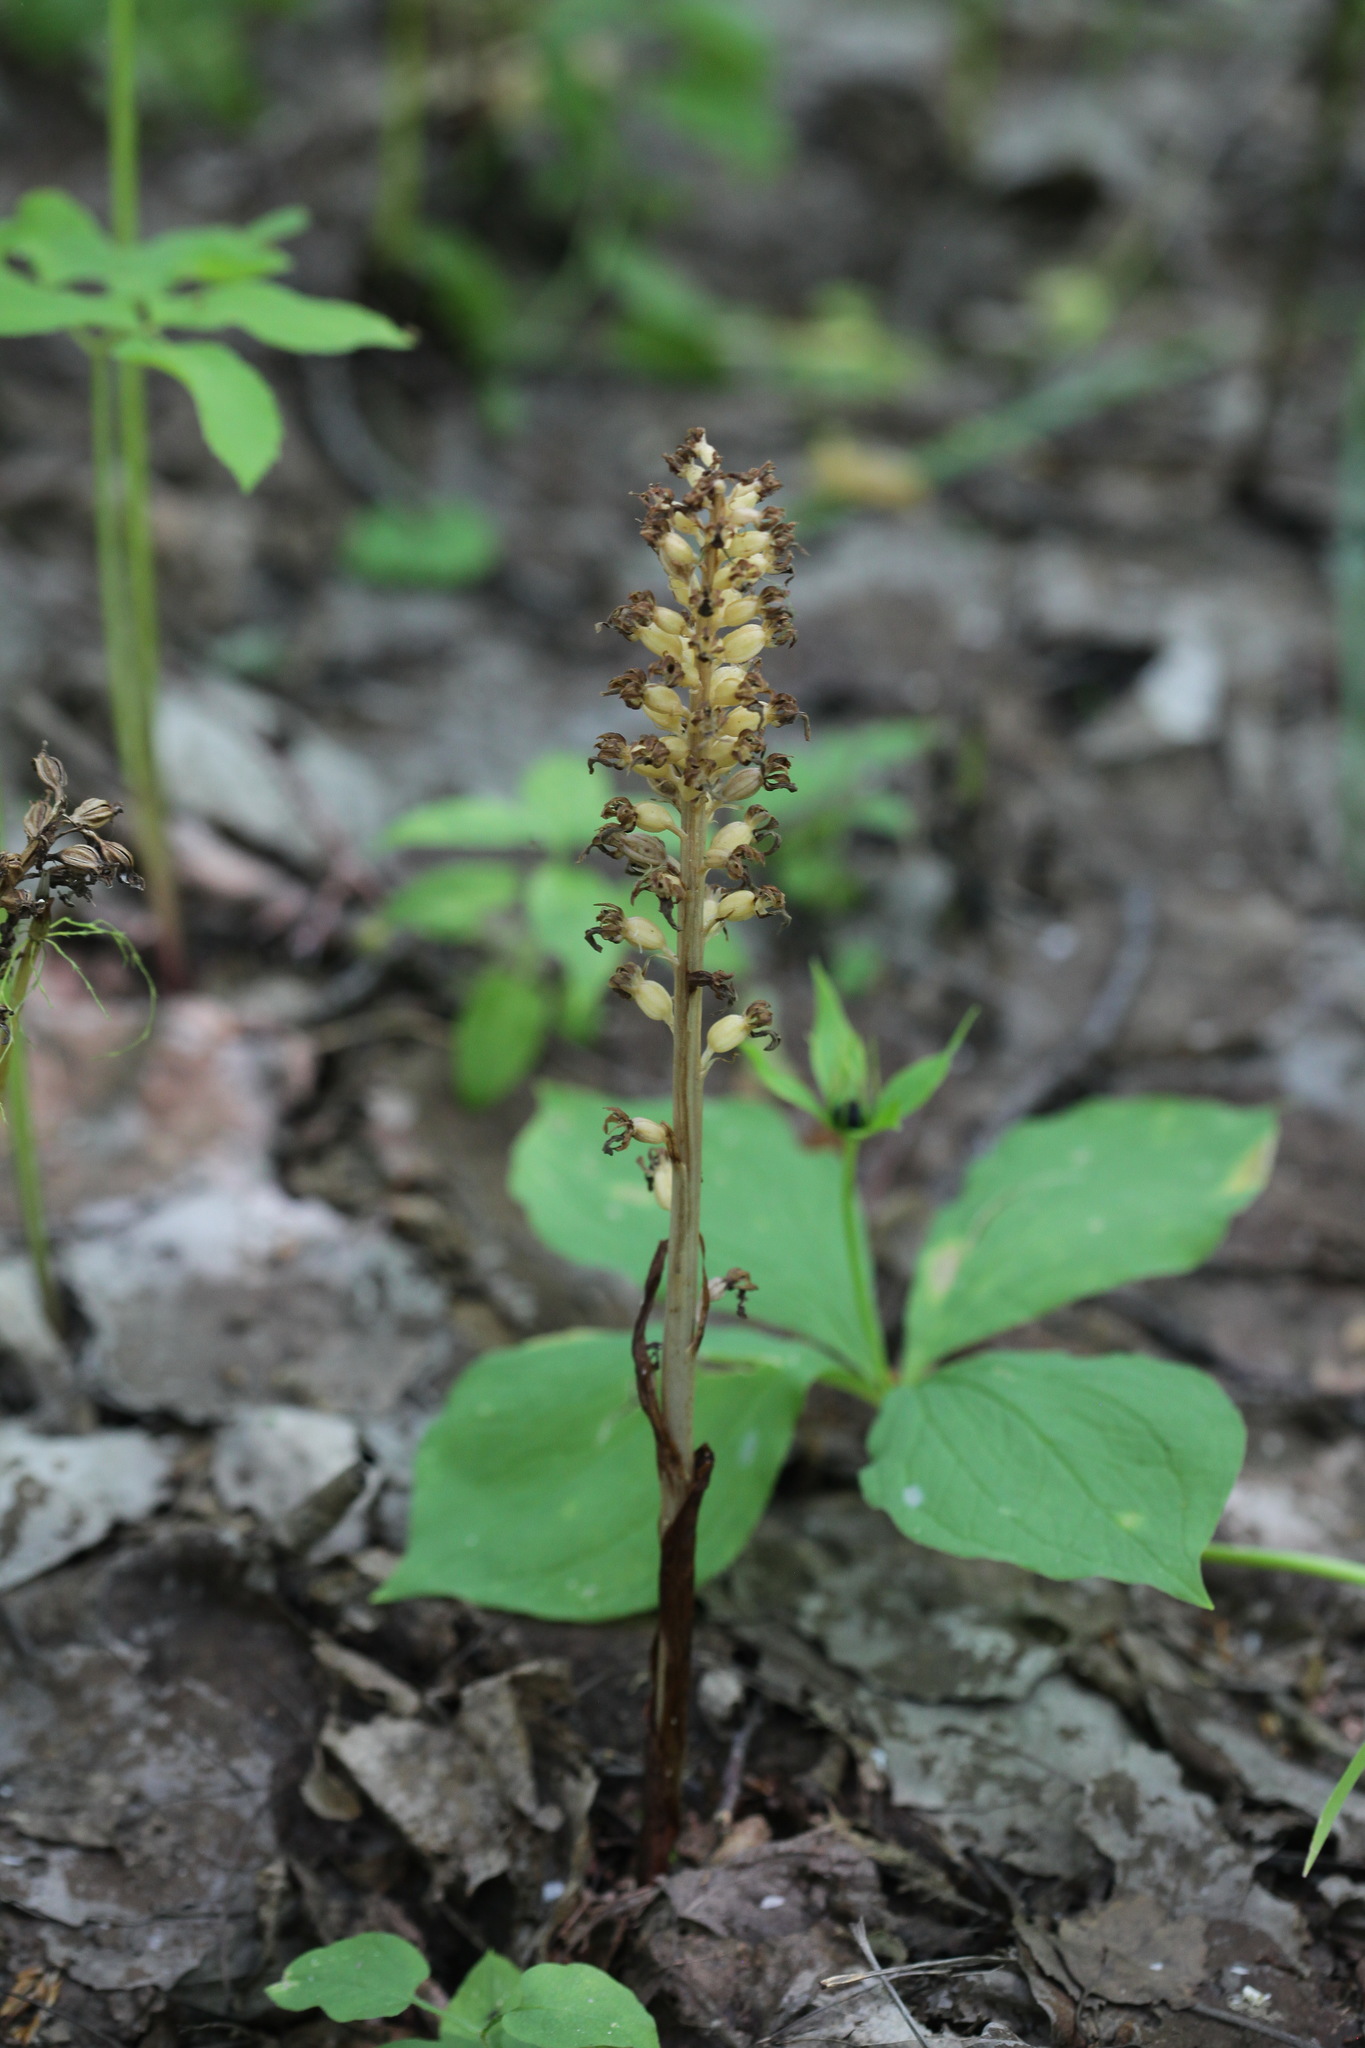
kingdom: Plantae
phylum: Tracheophyta
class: Liliopsida
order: Asparagales
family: Orchidaceae
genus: Neottia
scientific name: Neottia nidus-avis
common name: Bird's-nest orchid
